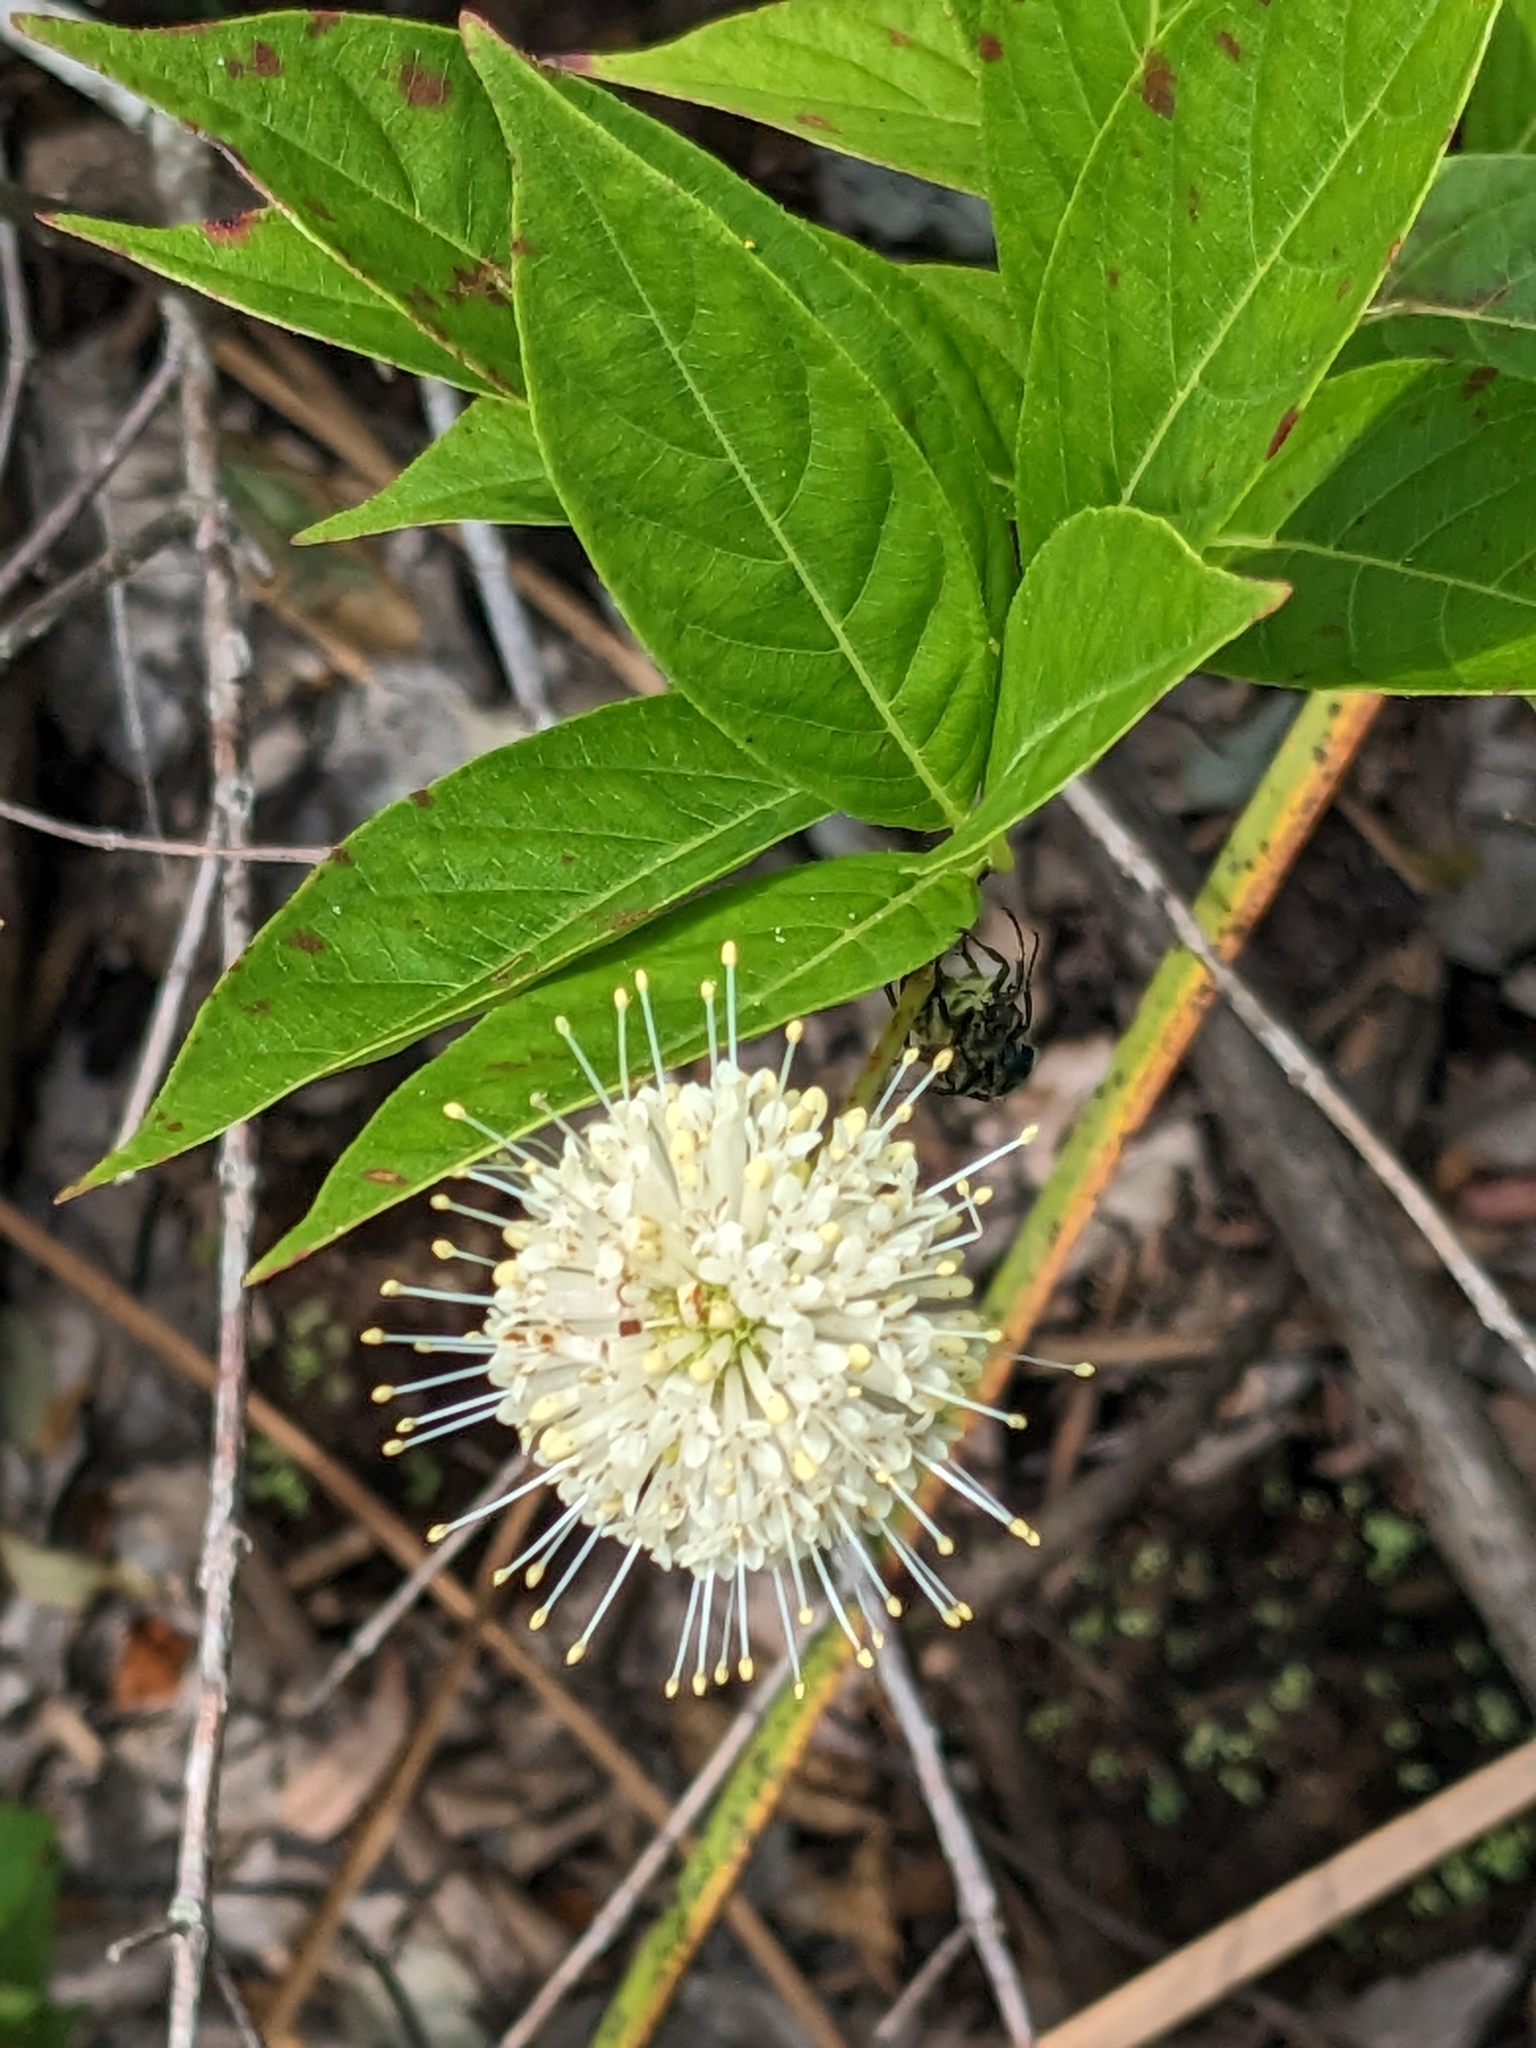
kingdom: Plantae
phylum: Tracheophyta
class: Magnoliopsida
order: Gentianales
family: Rubiaceae
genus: Cephalanthus
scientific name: Cephalanthus occidentalis
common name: Button-willow
